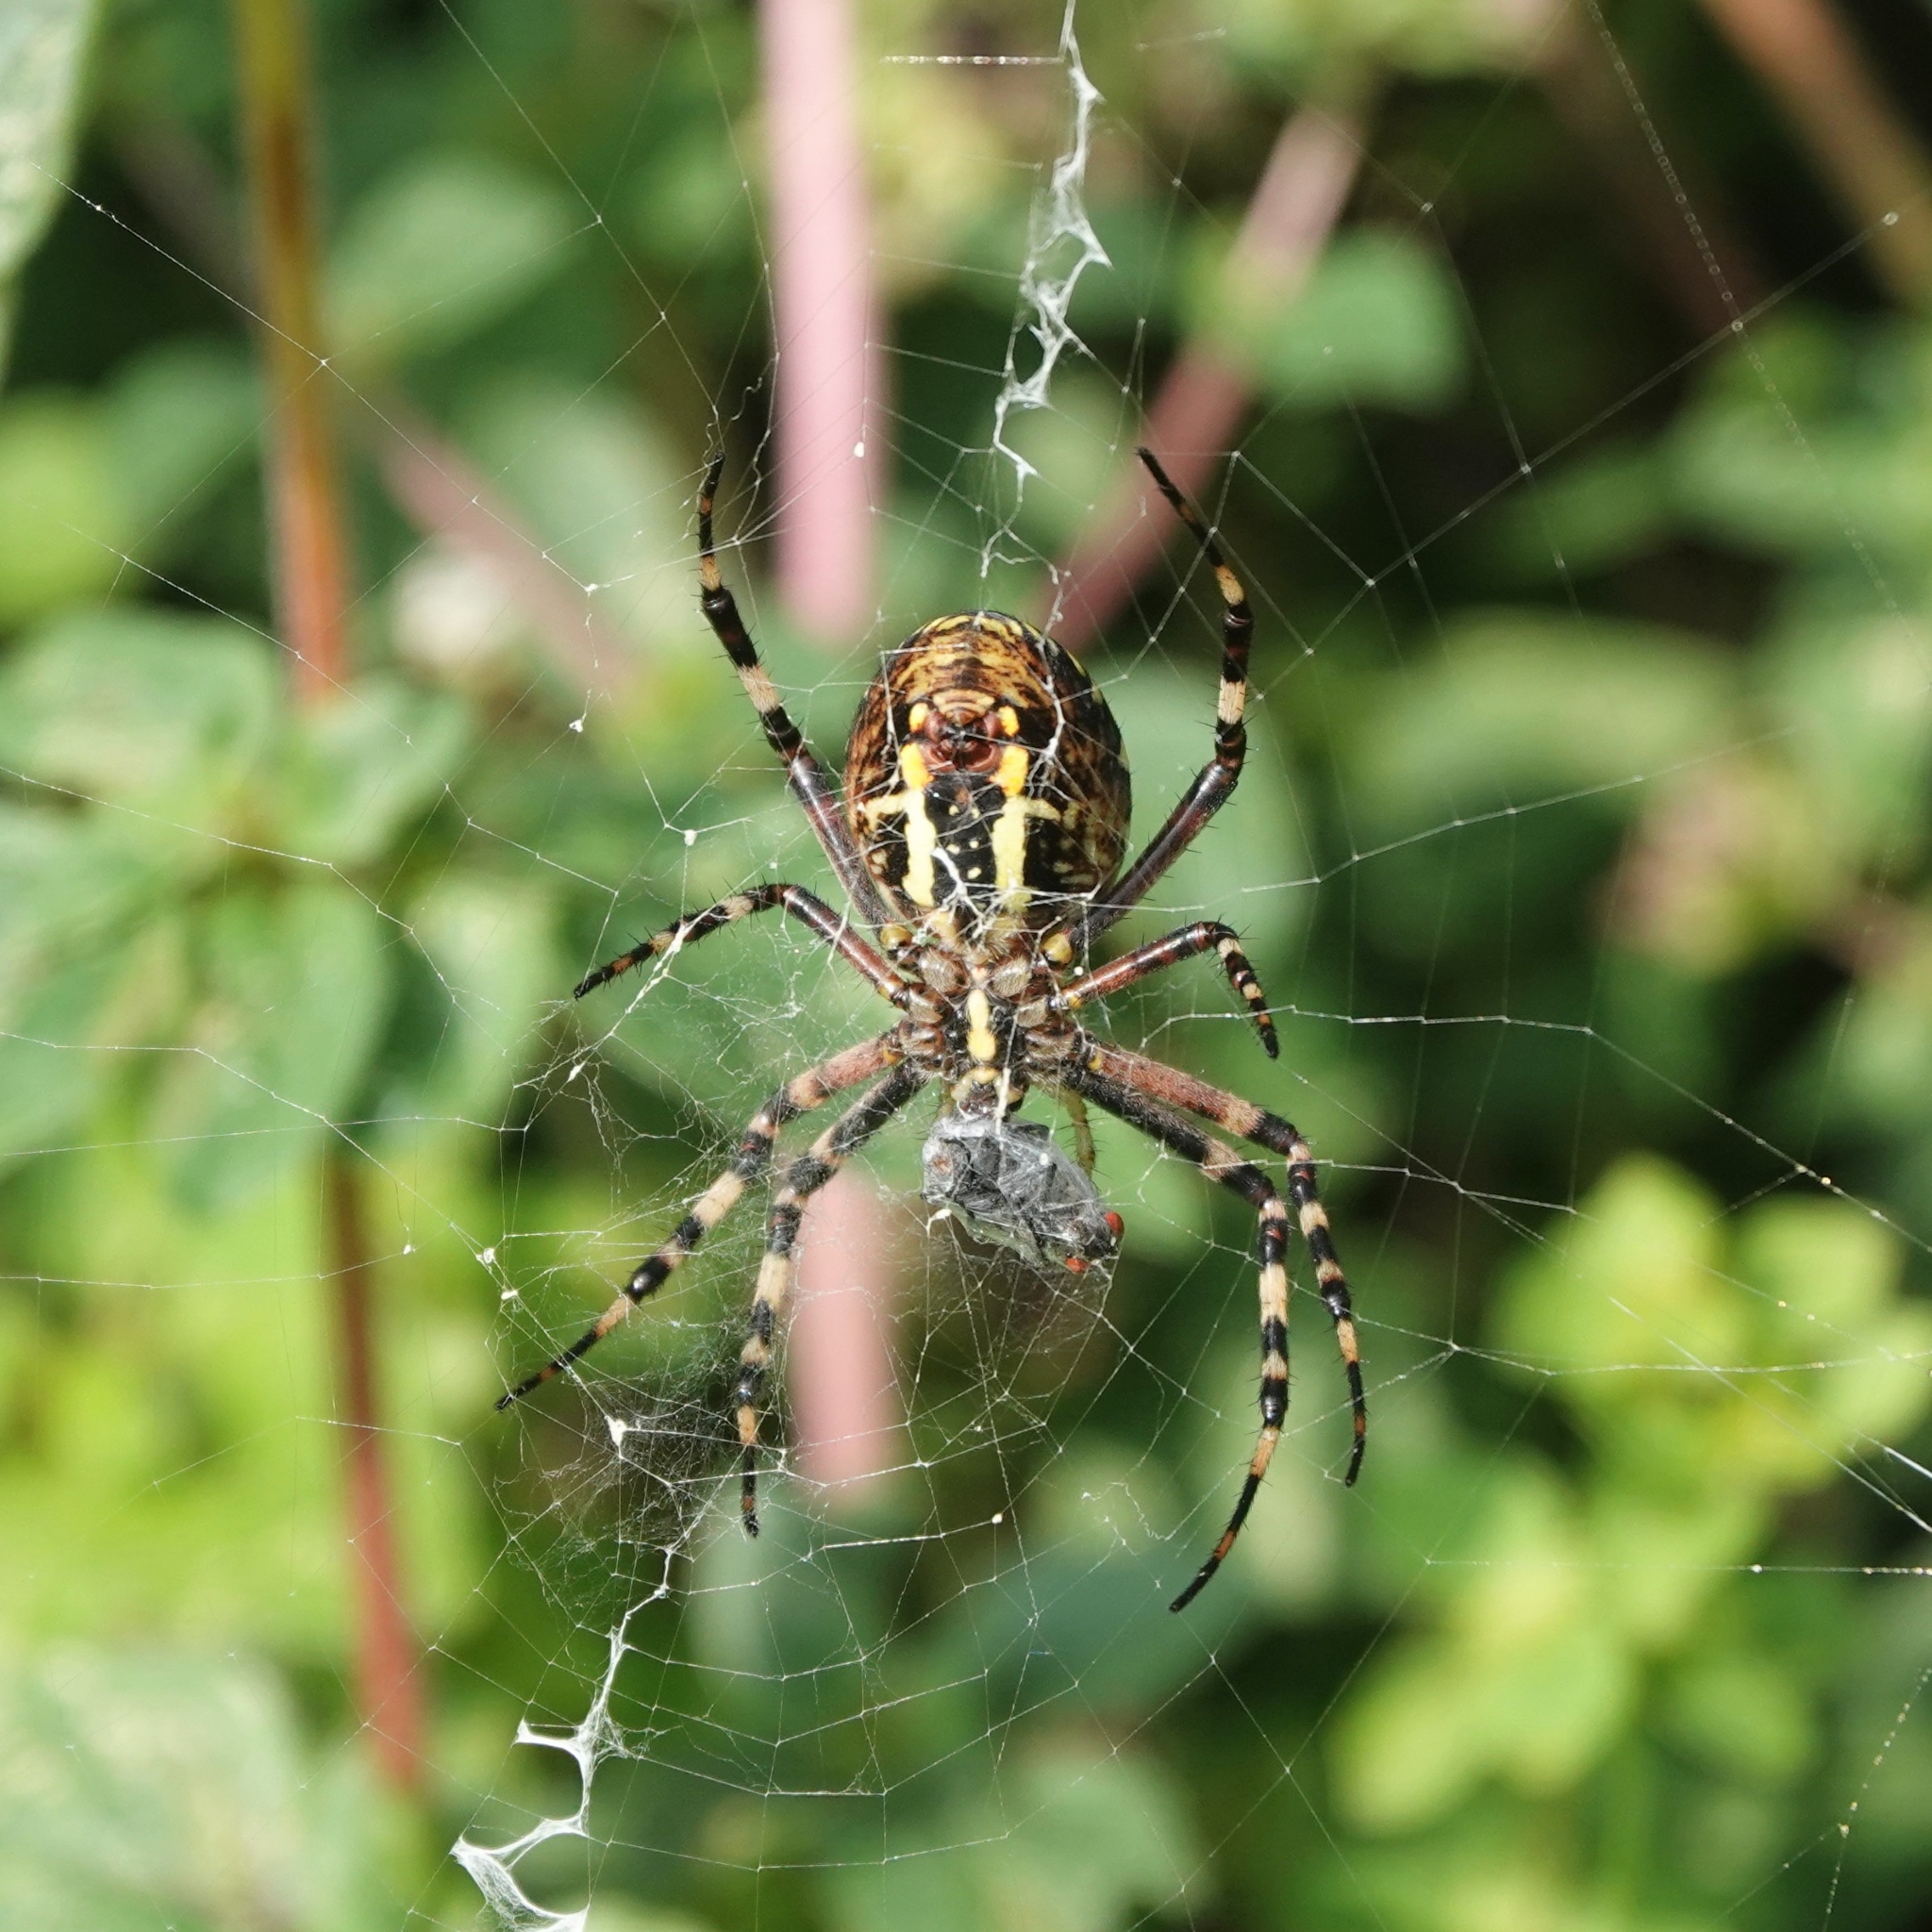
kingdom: Animalia
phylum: Arthropoda
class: Arachnida
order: Araneae
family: Araneidae
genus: Argiope
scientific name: Argiope bruennichi
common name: Wasp spider
